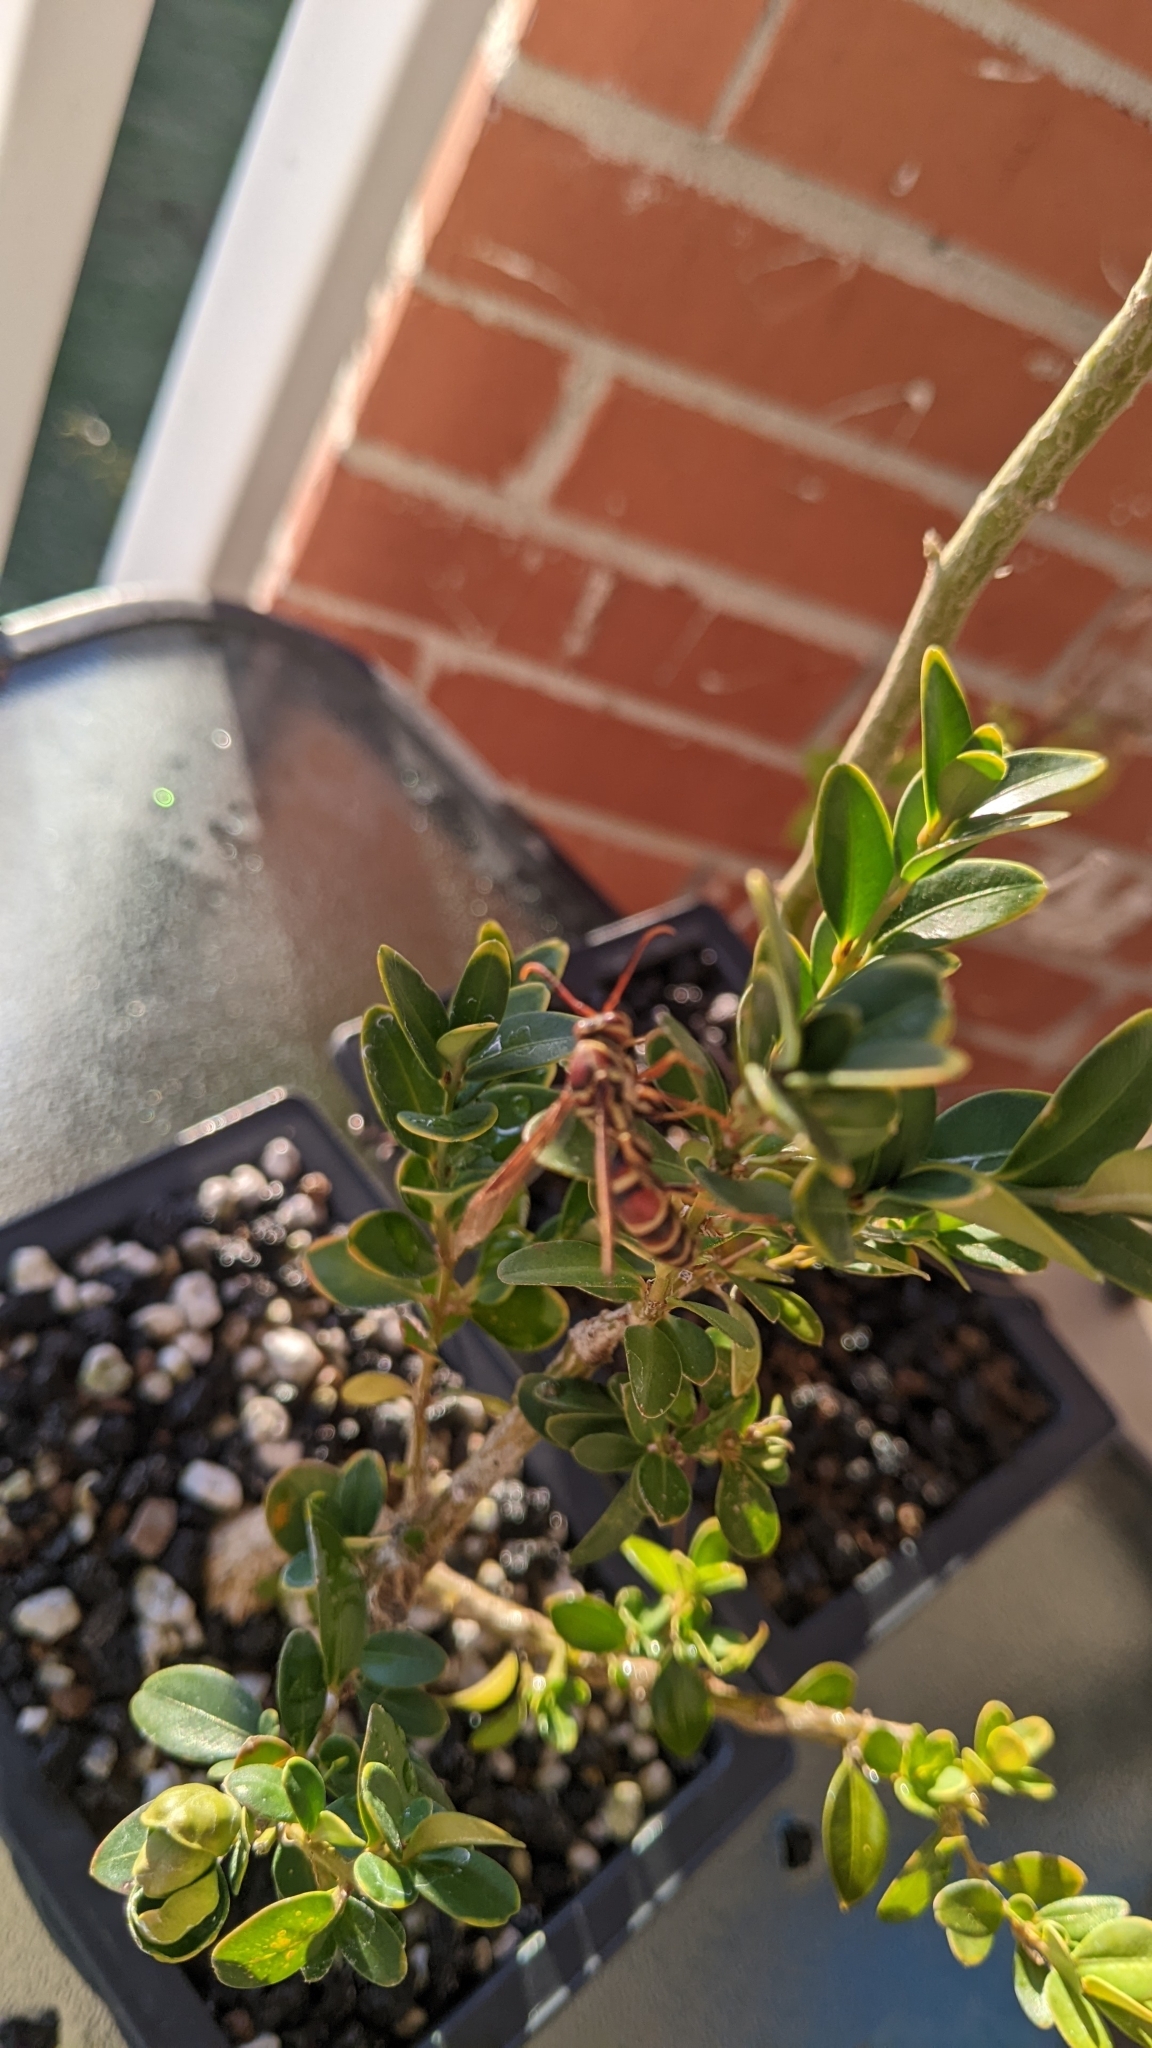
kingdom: Animalia
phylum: Arthropoda
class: Insecta
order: Hymenoptera
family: Eumenidae
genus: Polistes
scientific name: Polistes exclamans
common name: Paper wasp
